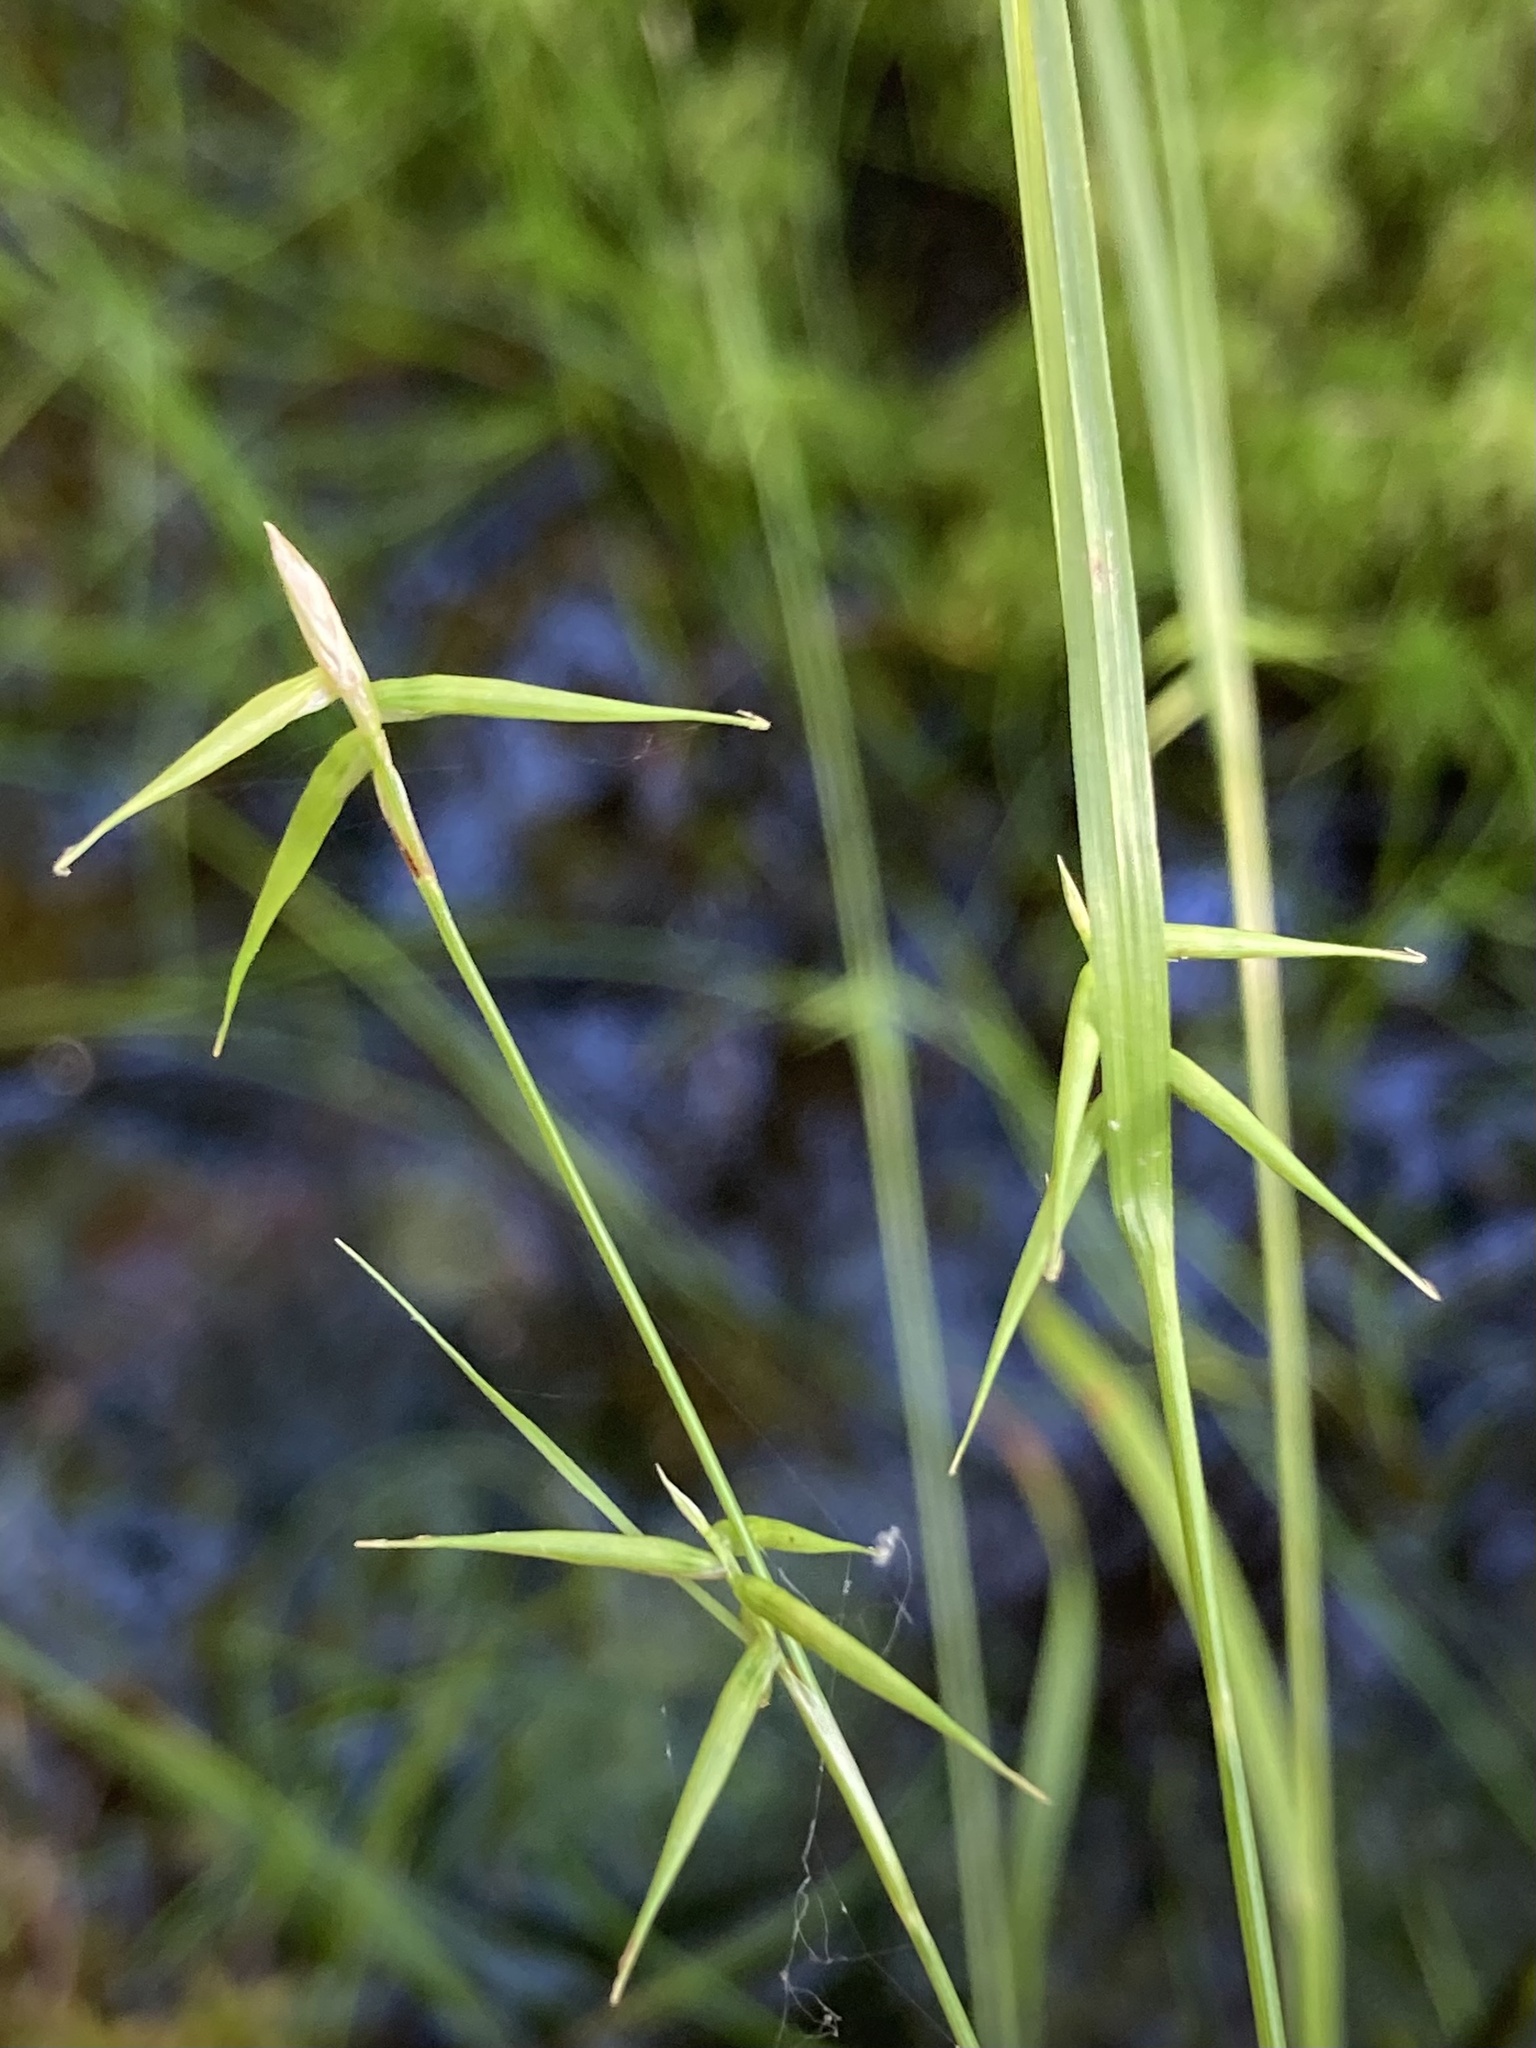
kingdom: Plantae
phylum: Tracheophyta
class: Liliopsida
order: Poales
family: Cyperaceae
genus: Carex
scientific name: Carex collinsii
